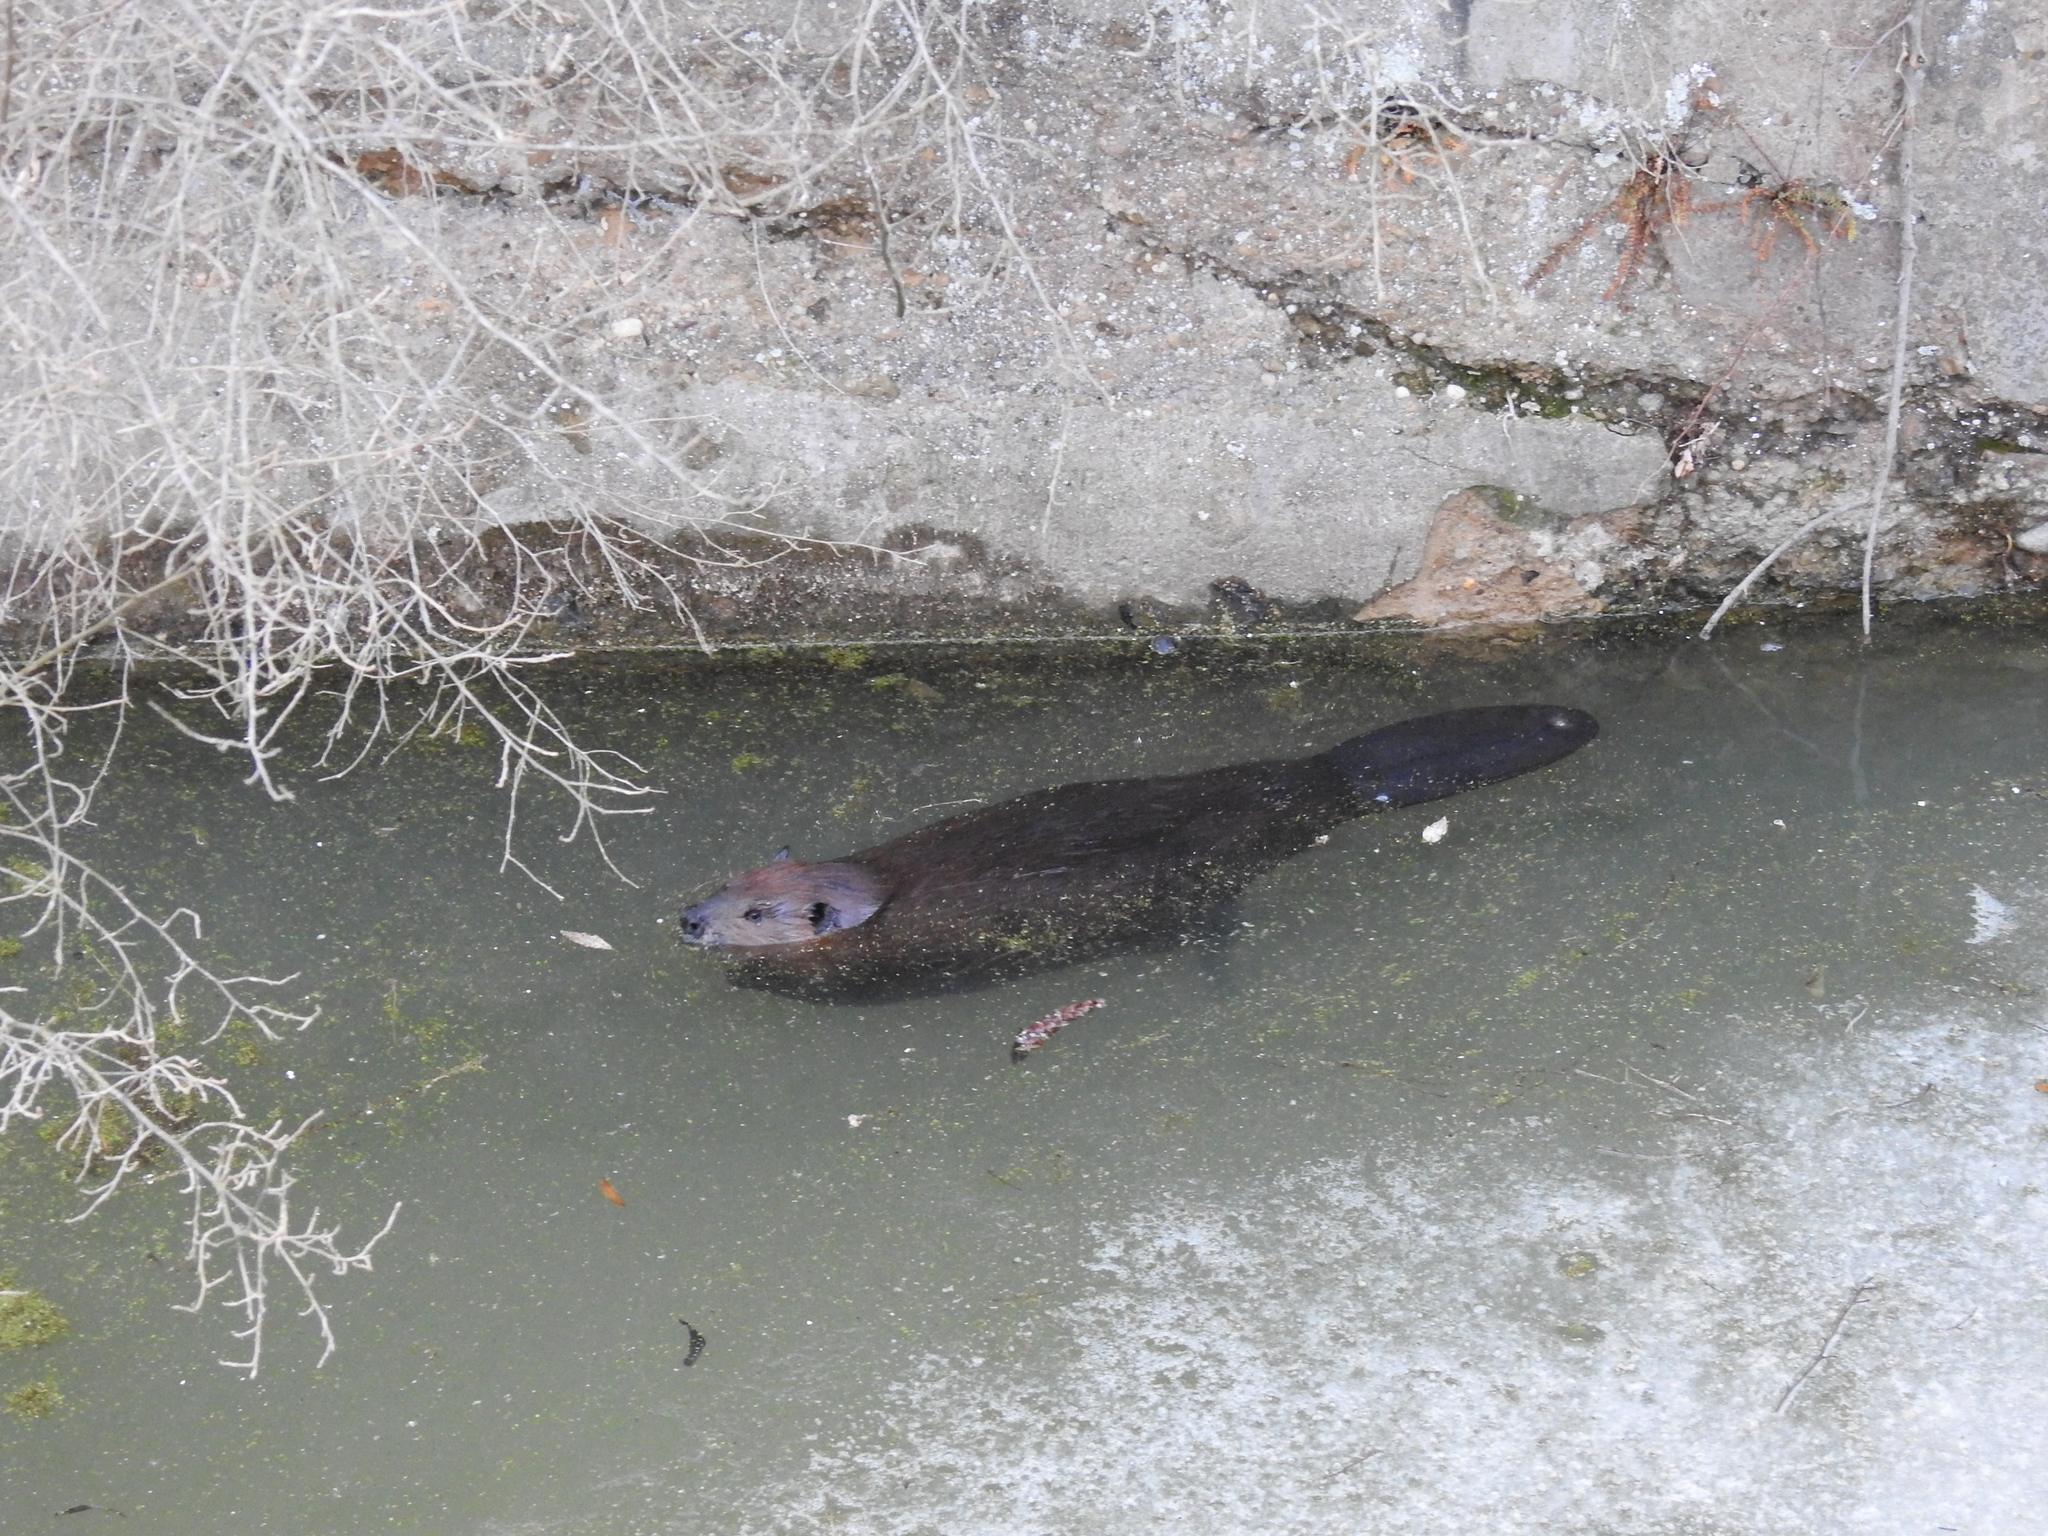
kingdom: Animalia
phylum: Chordata
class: Mammalia
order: Rodentia
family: Castoridae
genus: Castor
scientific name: Castor canadensis
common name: American beaver
